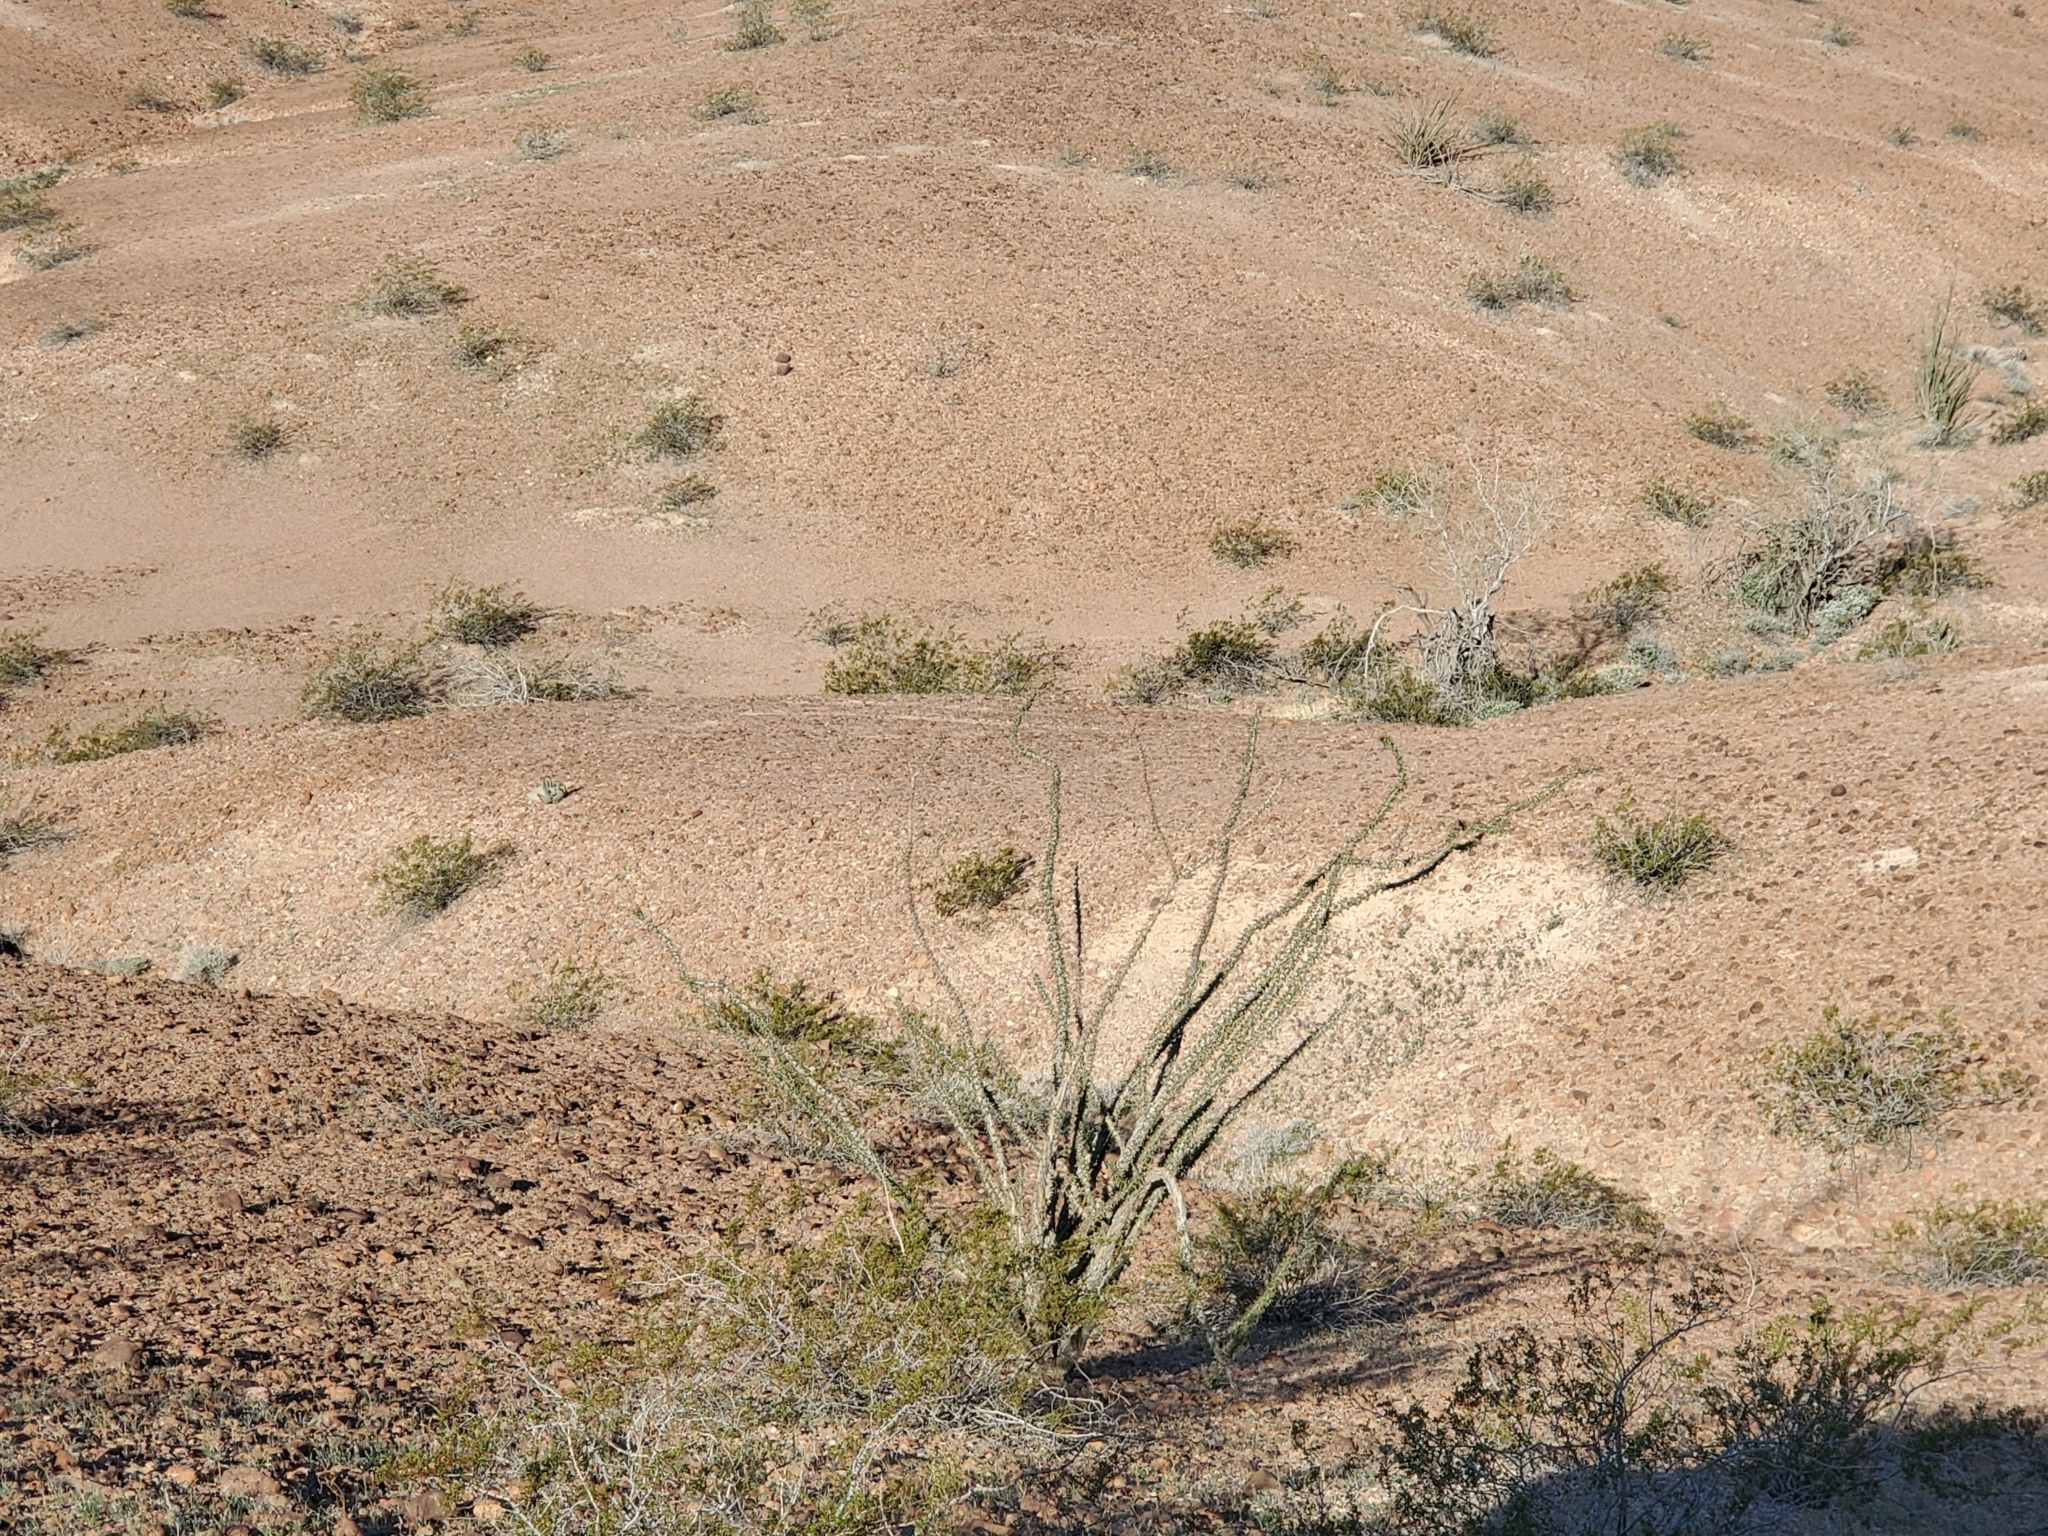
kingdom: Plantae
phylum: Tracheophyta
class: Magnoliopsida
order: Ericales
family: Fouquieriaceae
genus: Fouquieria
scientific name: Fouquieria splendens
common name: Vine-cactus
